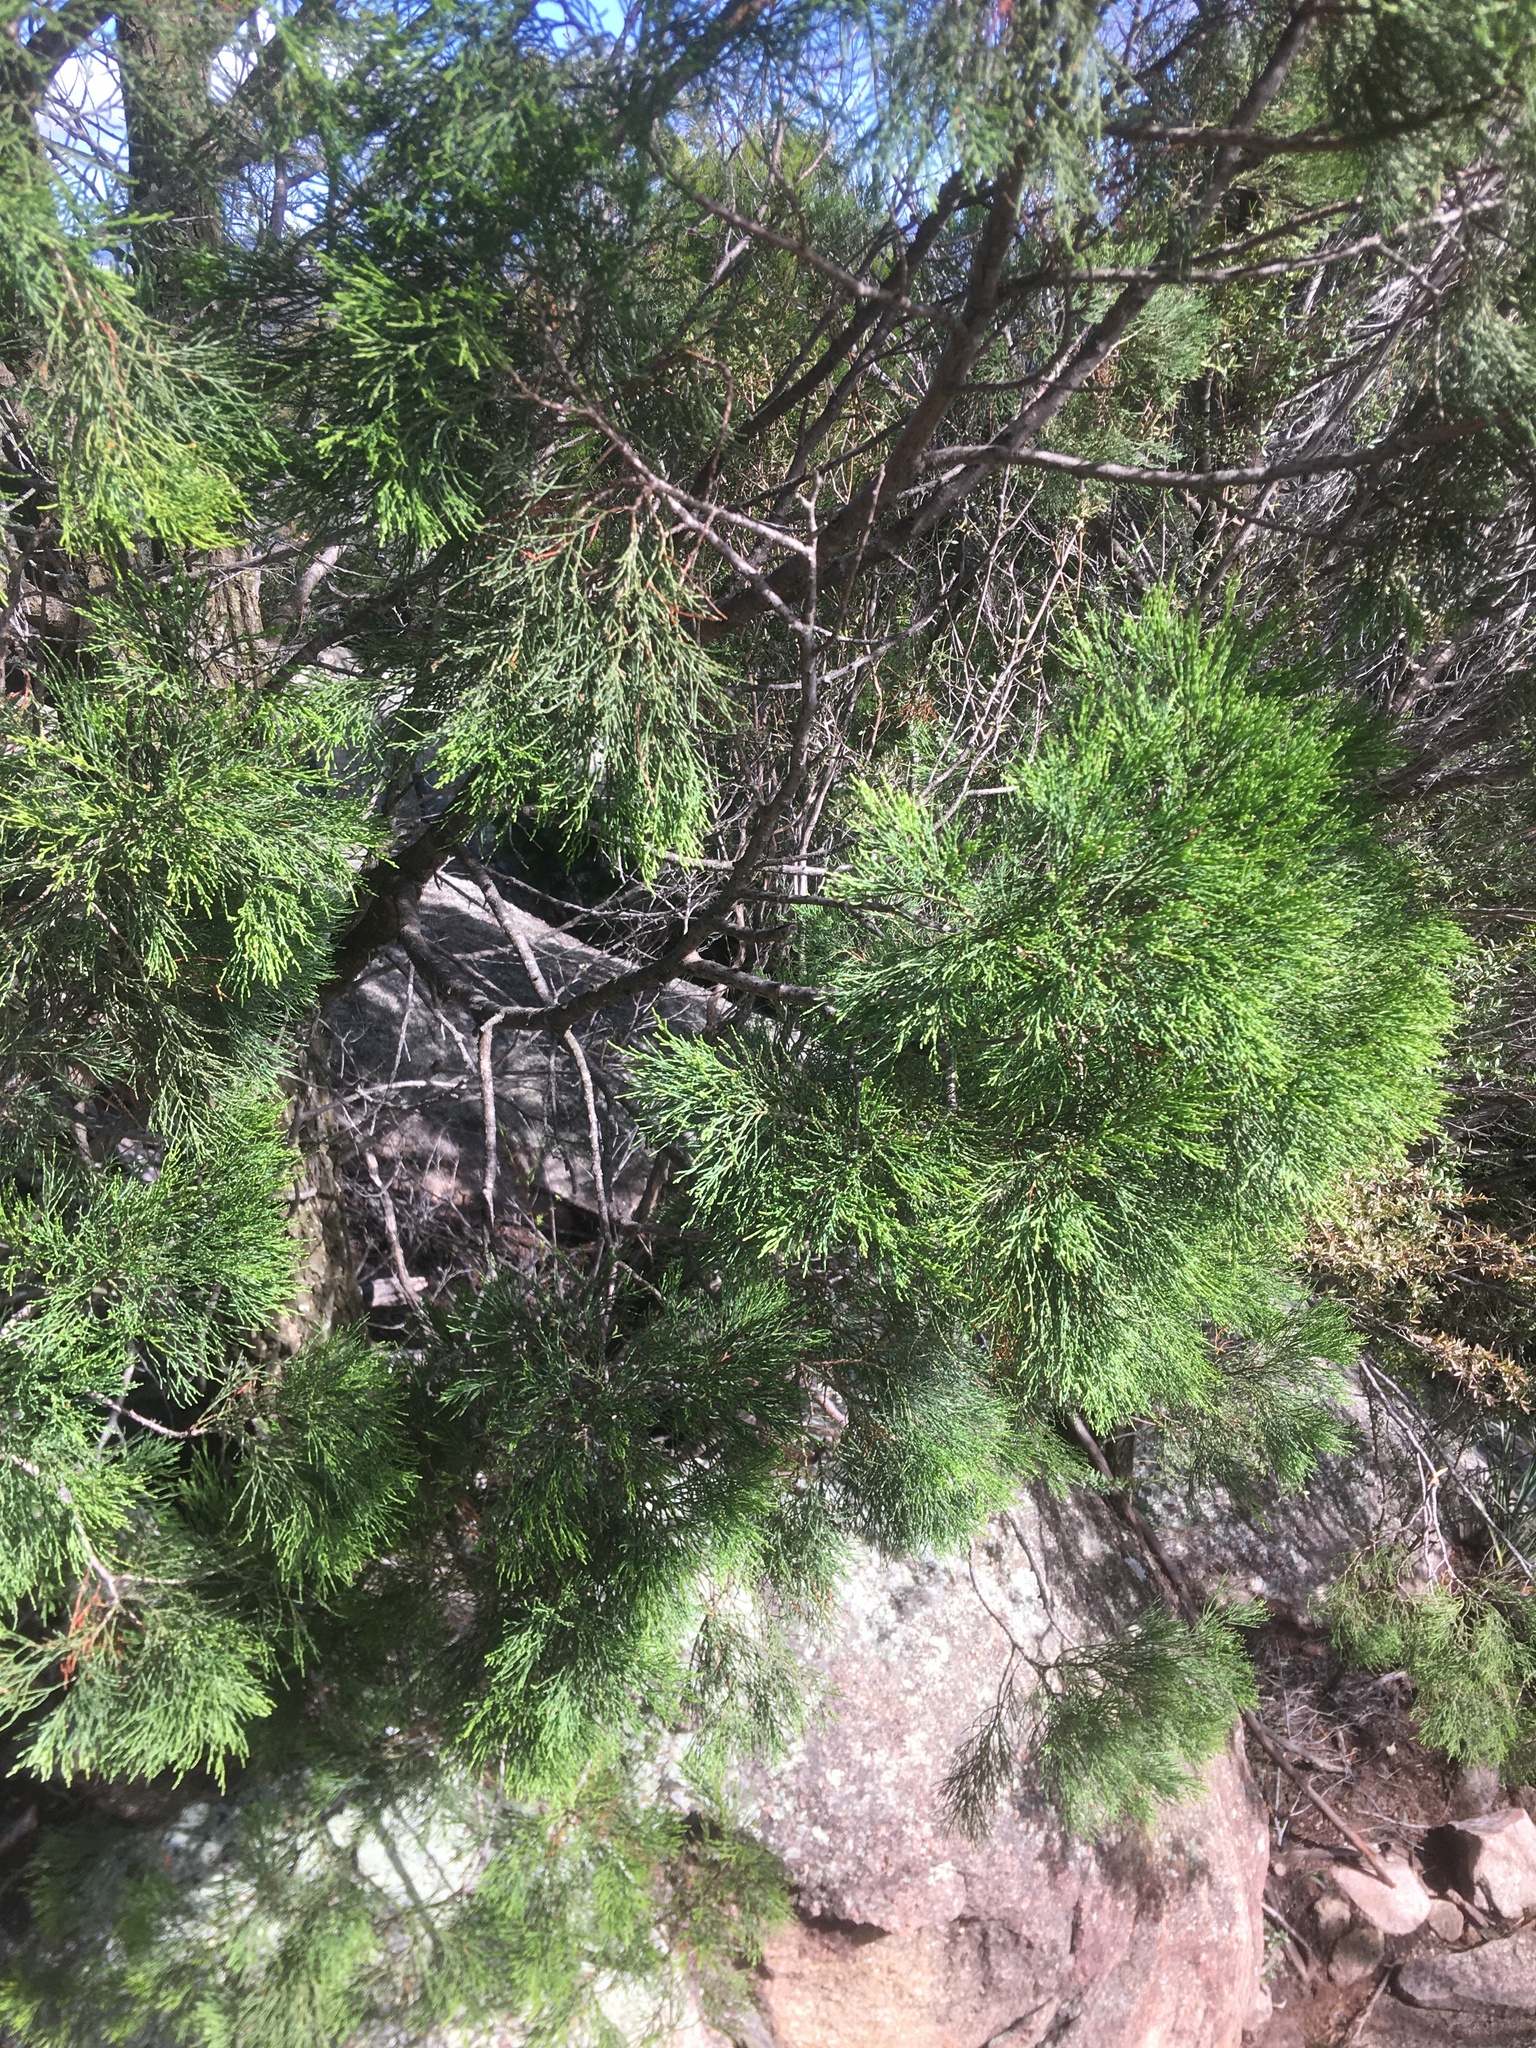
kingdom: Plantae
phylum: Tracheophyta
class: Pinopsida
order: Pinales
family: Cupressaceae
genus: Callitris
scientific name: Callitris endlicheri
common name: Black cypress-pine
